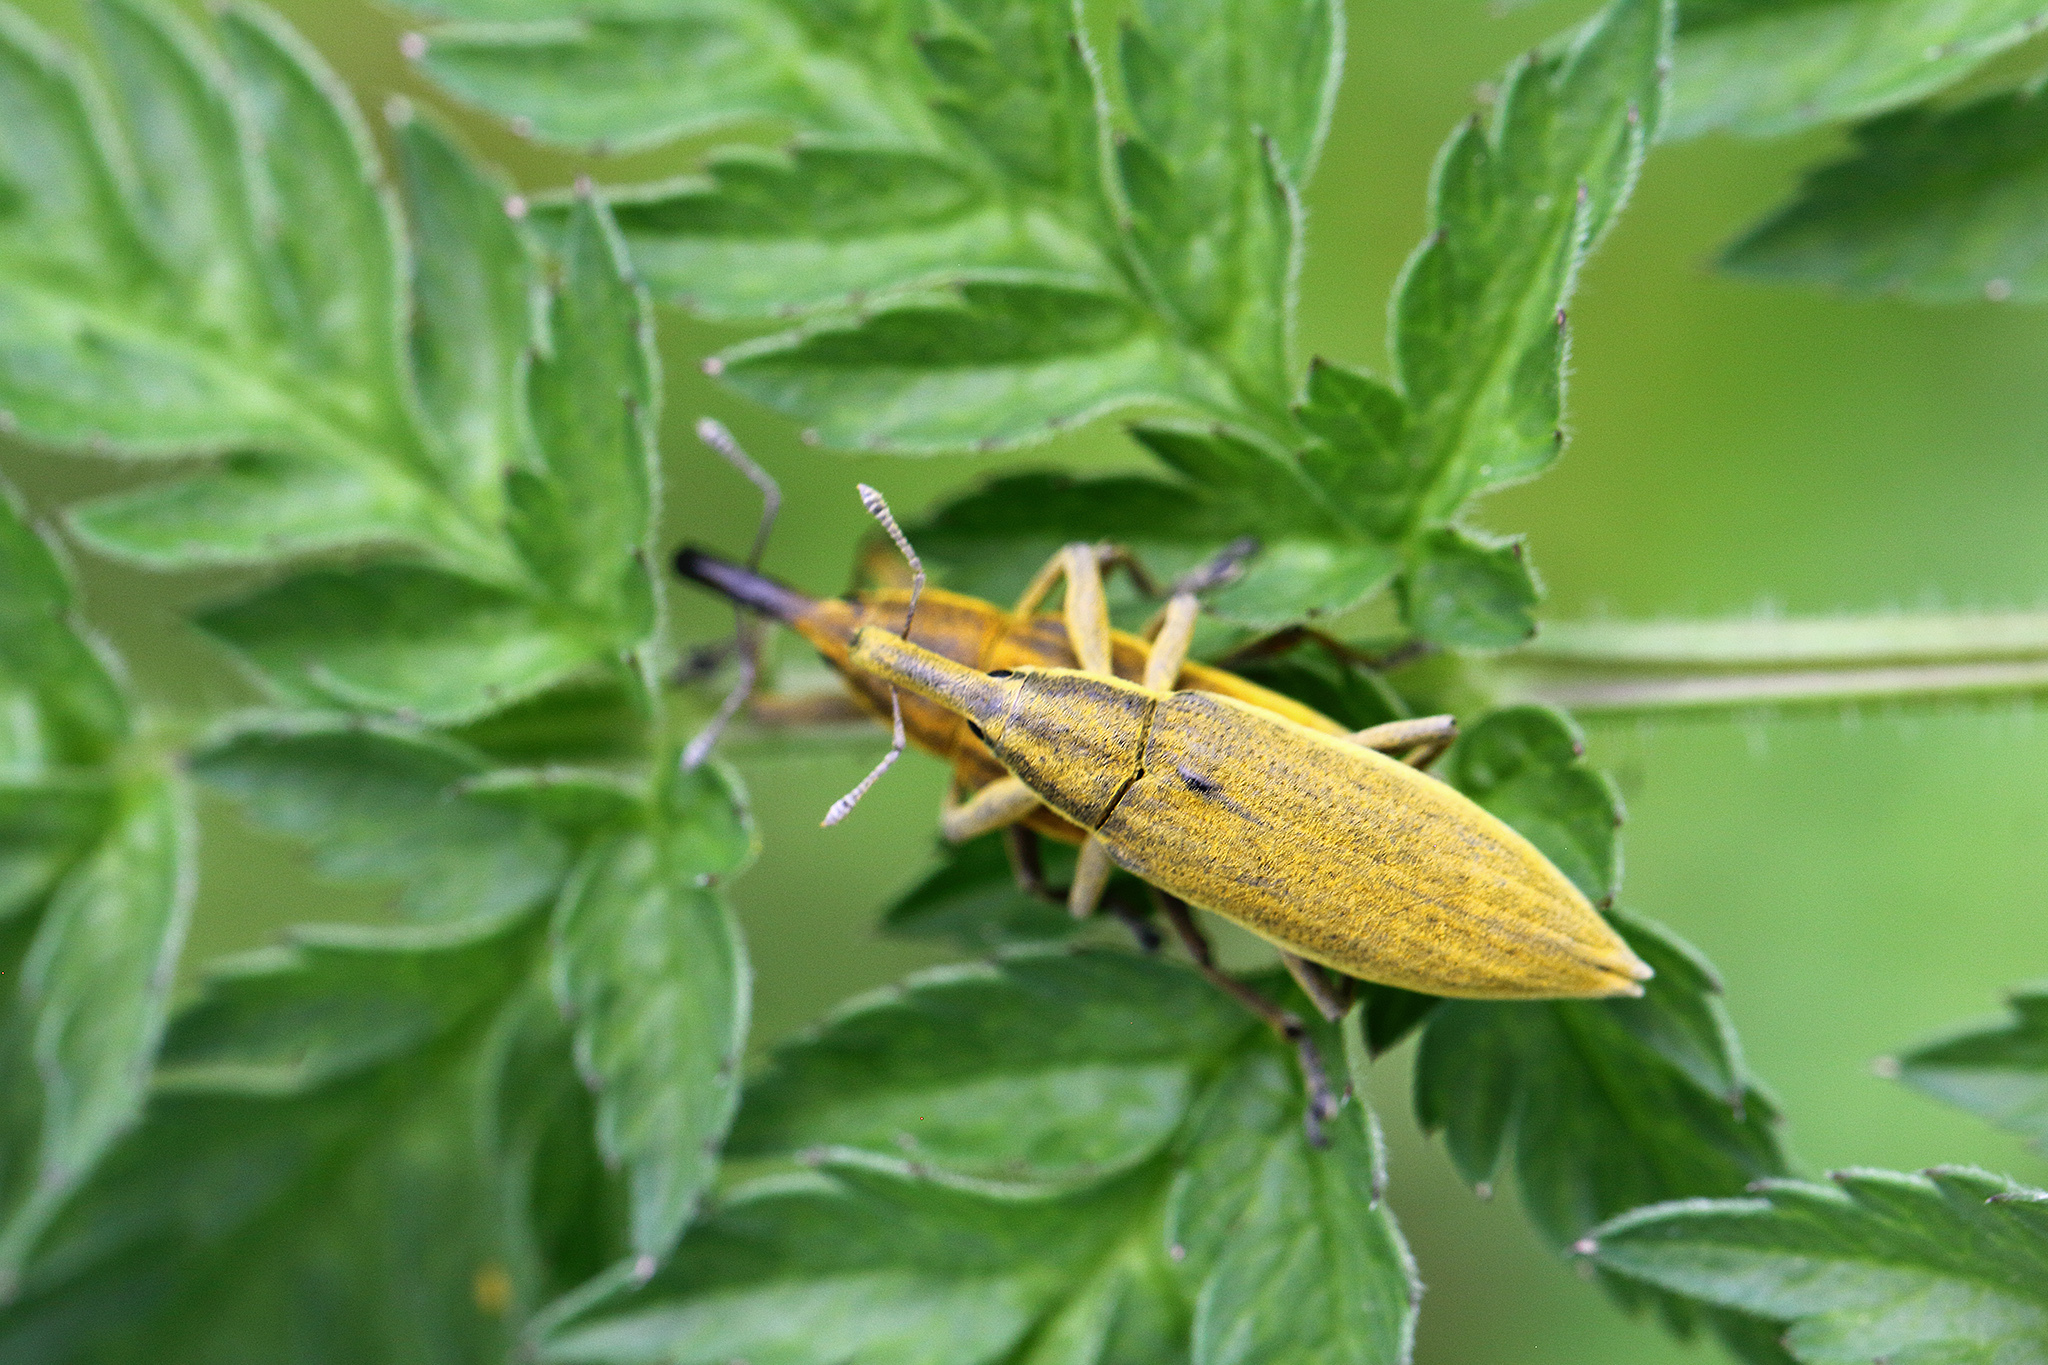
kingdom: Animalia
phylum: Arthropoda
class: Insecta
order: Coleoptera
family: Curculionidae
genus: Lixus
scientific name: Lixus iridis
